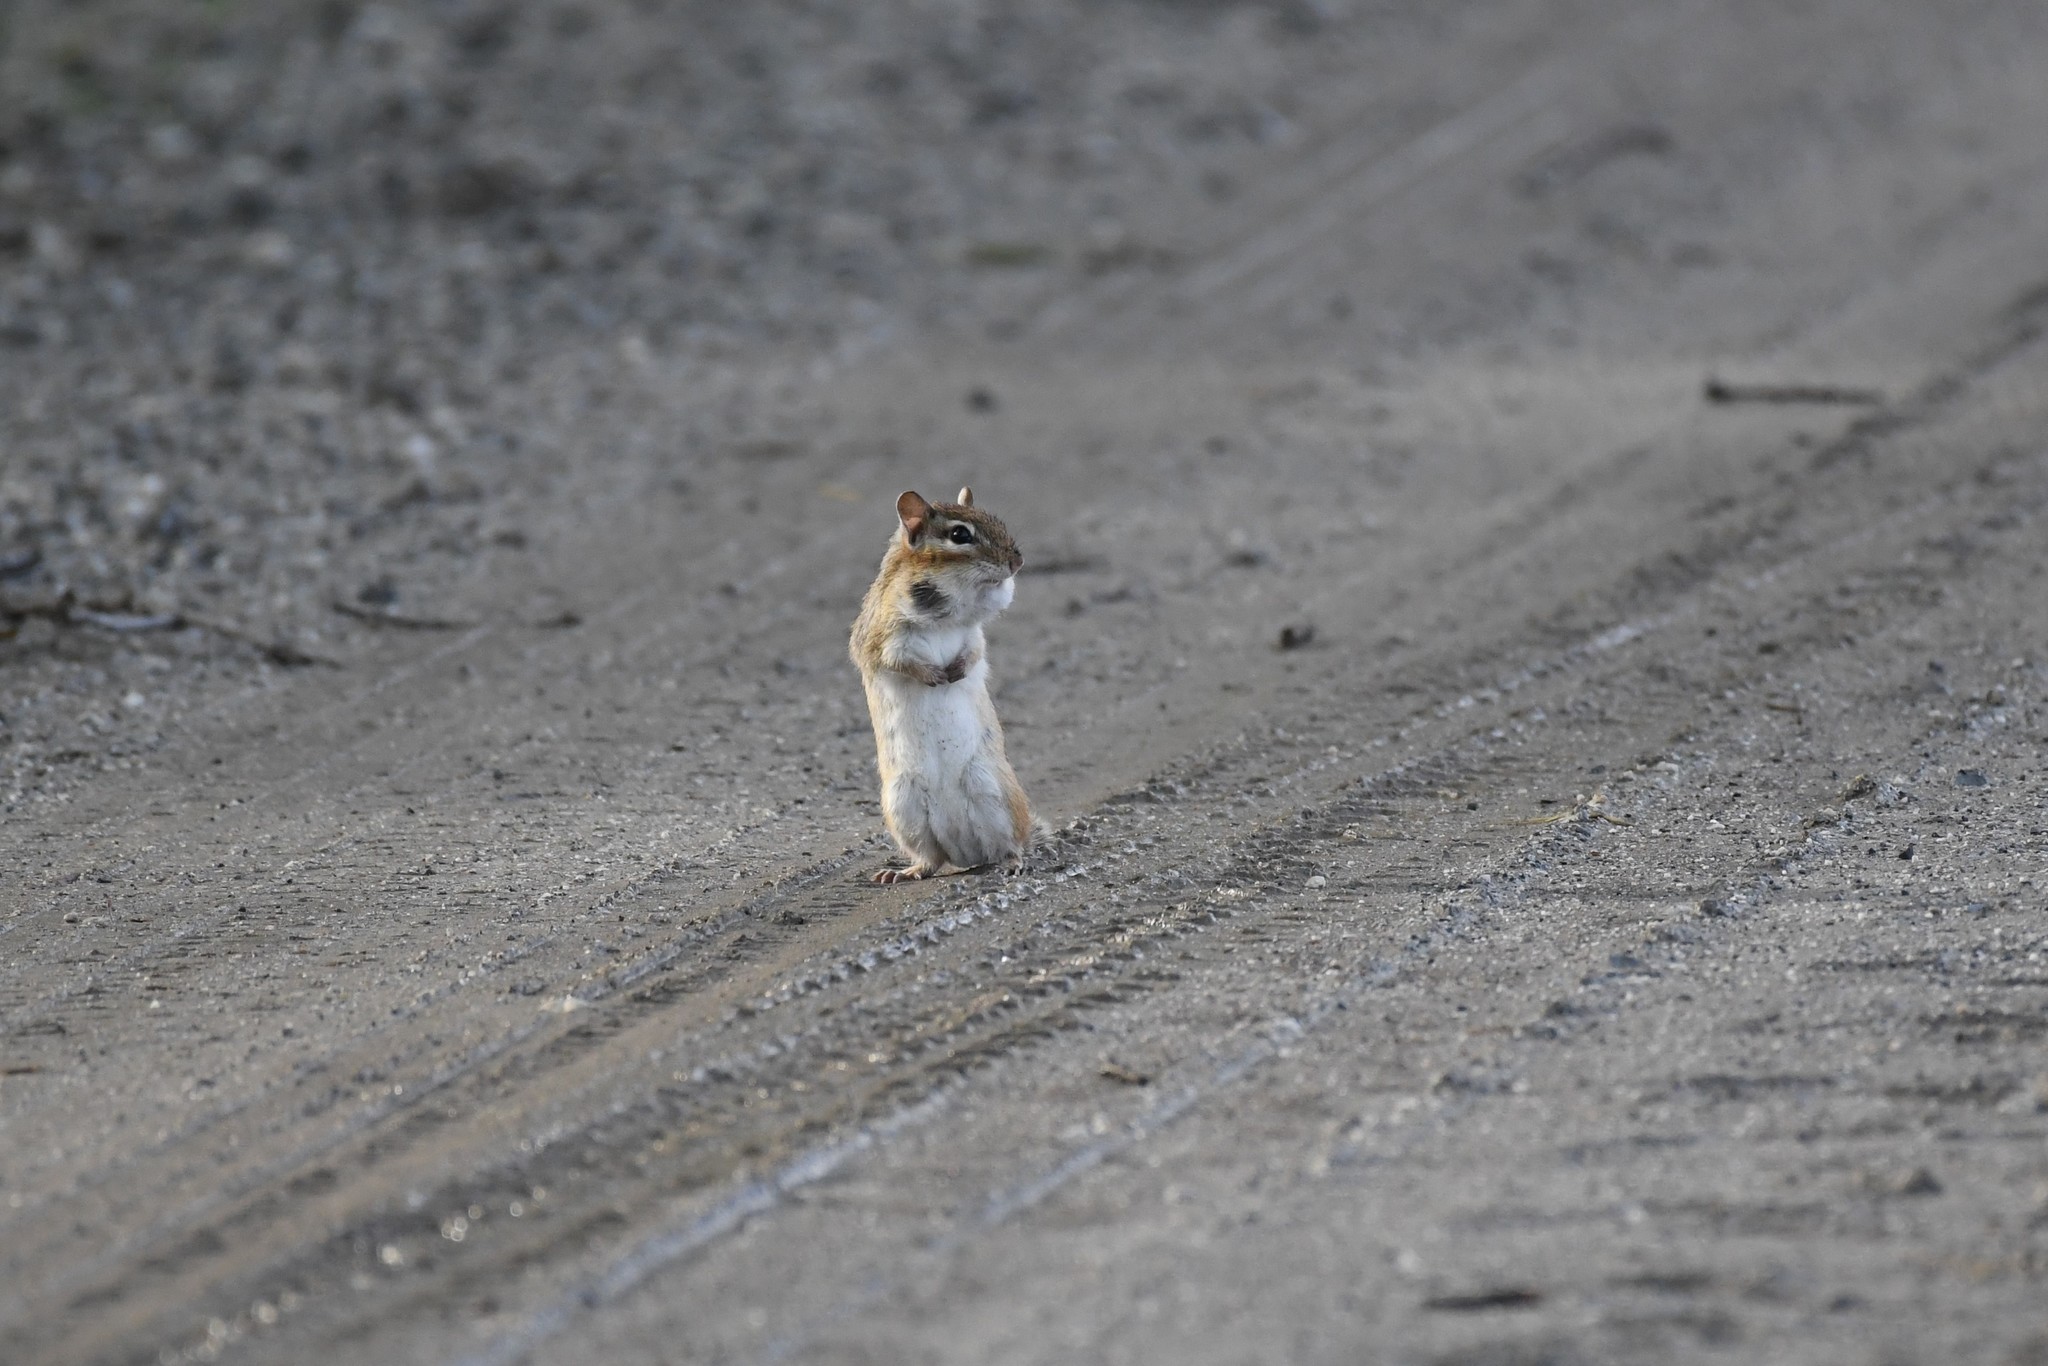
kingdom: Animalia
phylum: Chordata
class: Mammalia
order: Rodentia
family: Sciuridae
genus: Tamias
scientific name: Tamias striatus
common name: Eastern chipmunk
